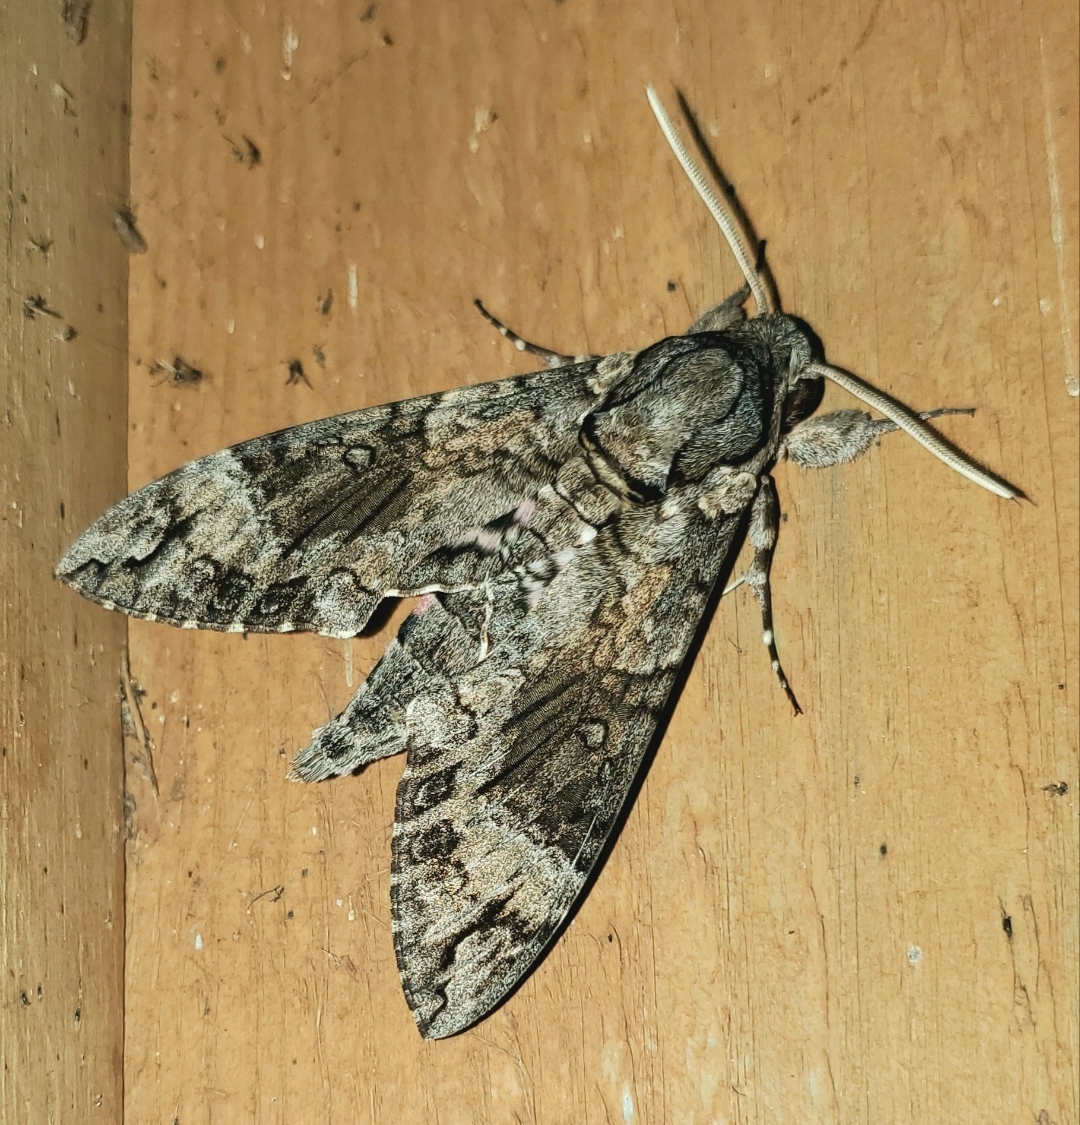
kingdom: Animalia
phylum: Arthropoda
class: Insecta
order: Lepidoptera
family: Sphingidae
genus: Agrius
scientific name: Agrius cingulata
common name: Pink-spotted hawkmoth
